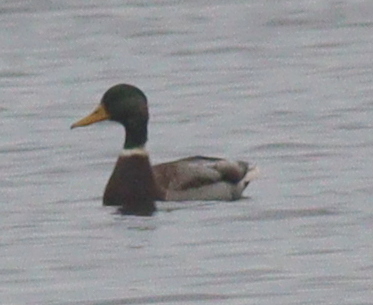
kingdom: Animalia
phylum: Chordata
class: Aves
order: Anseriformes
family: Anatidae
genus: Anas
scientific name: Anas platyrhynchos
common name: Mallard
